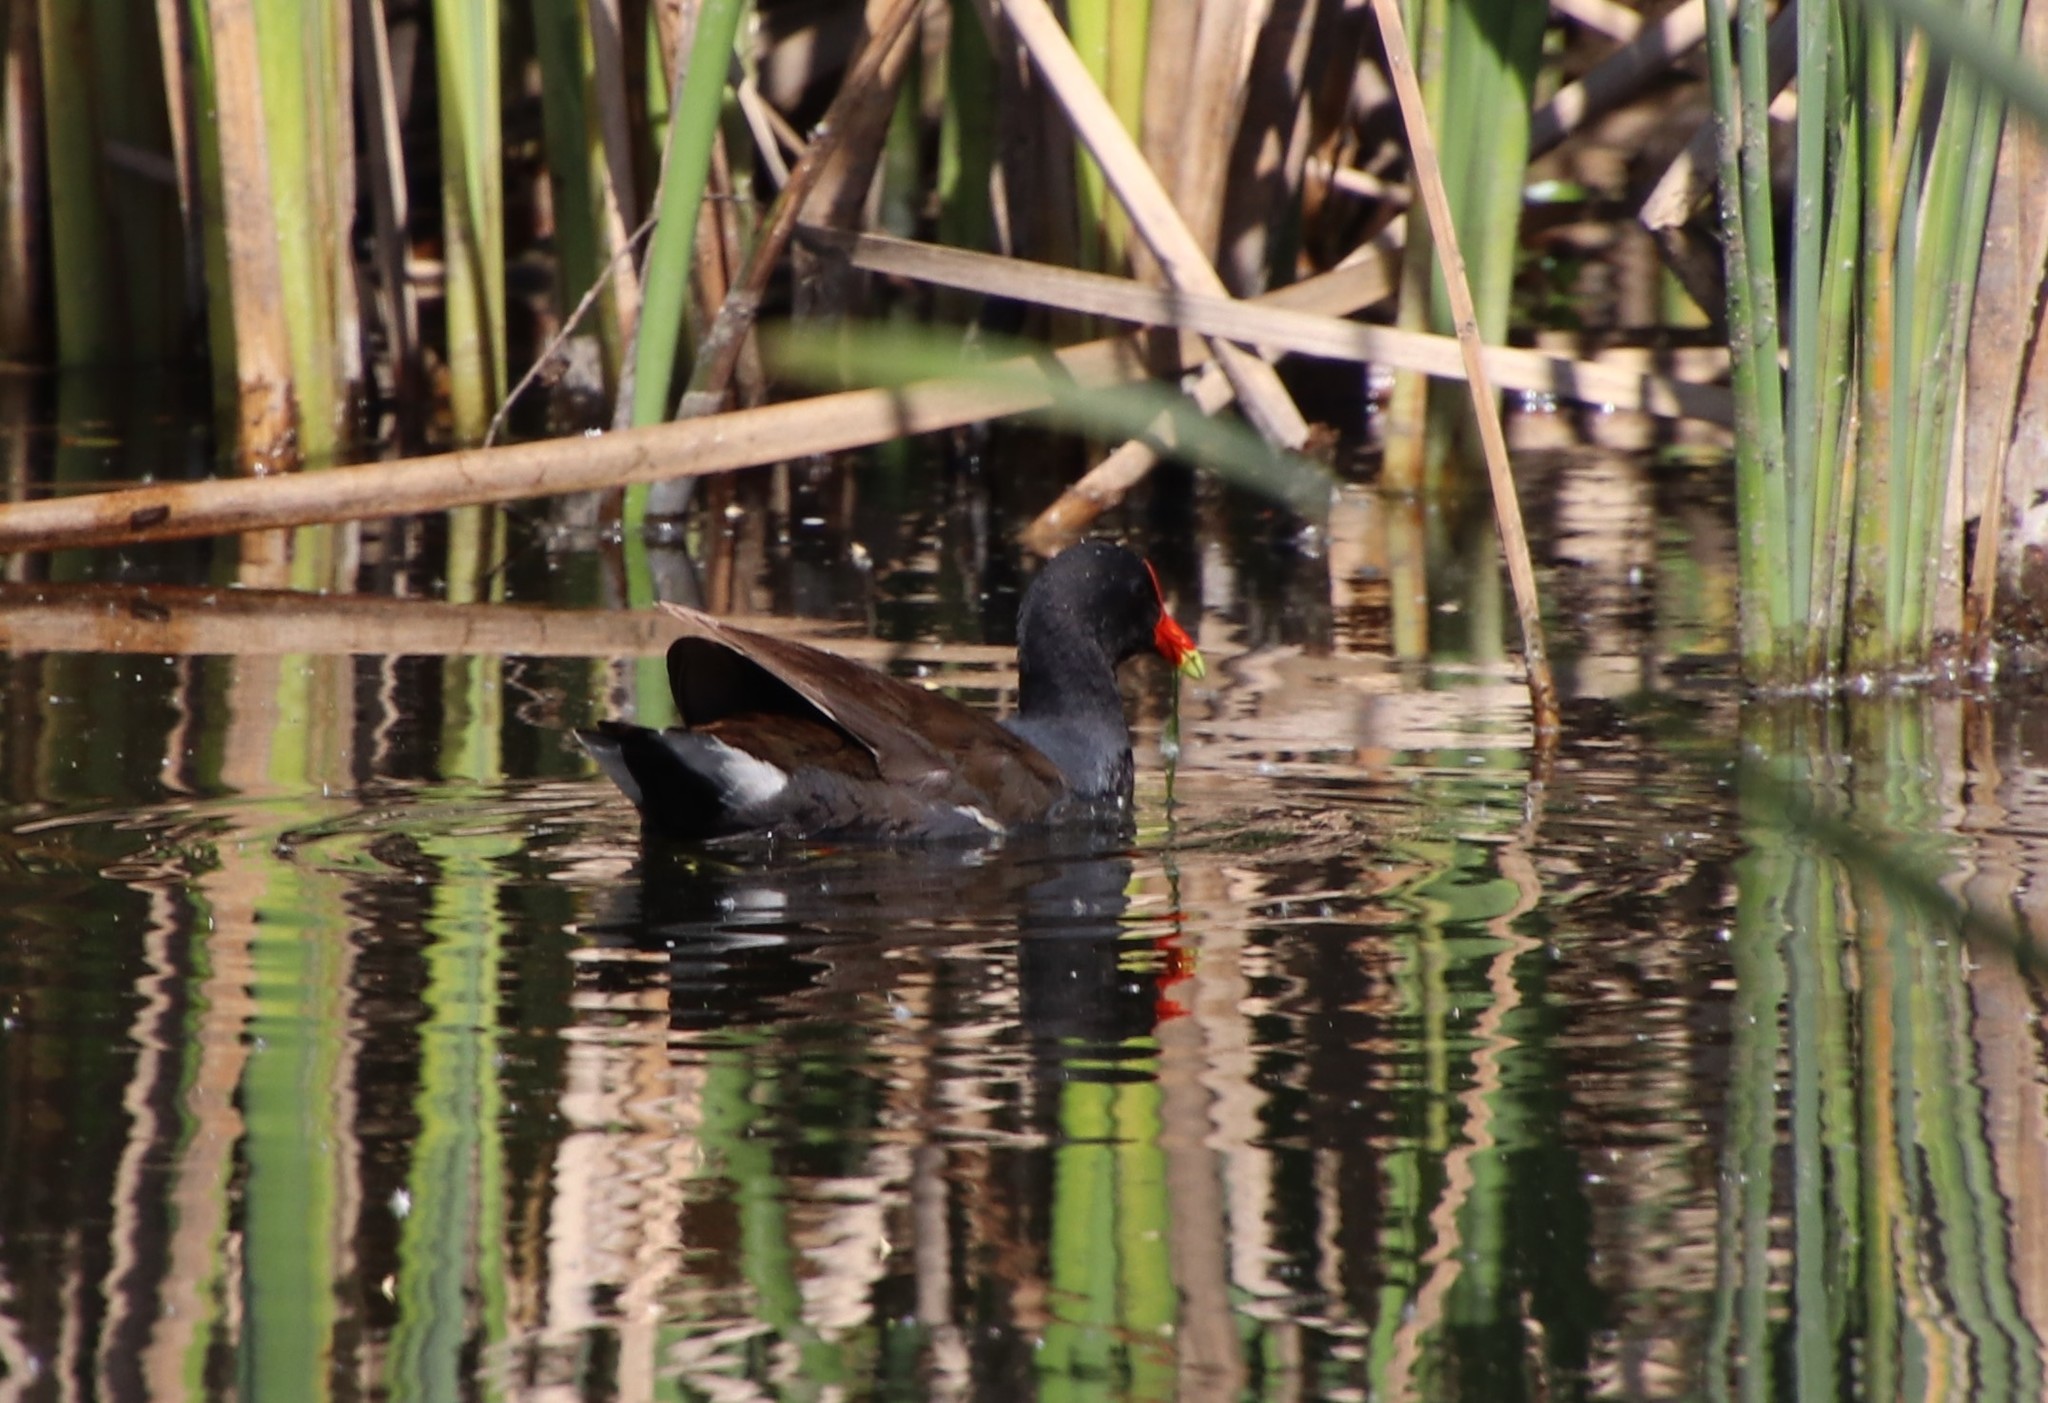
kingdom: Animalia
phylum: Chordata
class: Aves
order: Gruiformes
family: Rallidae
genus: Gallinula
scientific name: Gallinula chloropus
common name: Common moorhen
